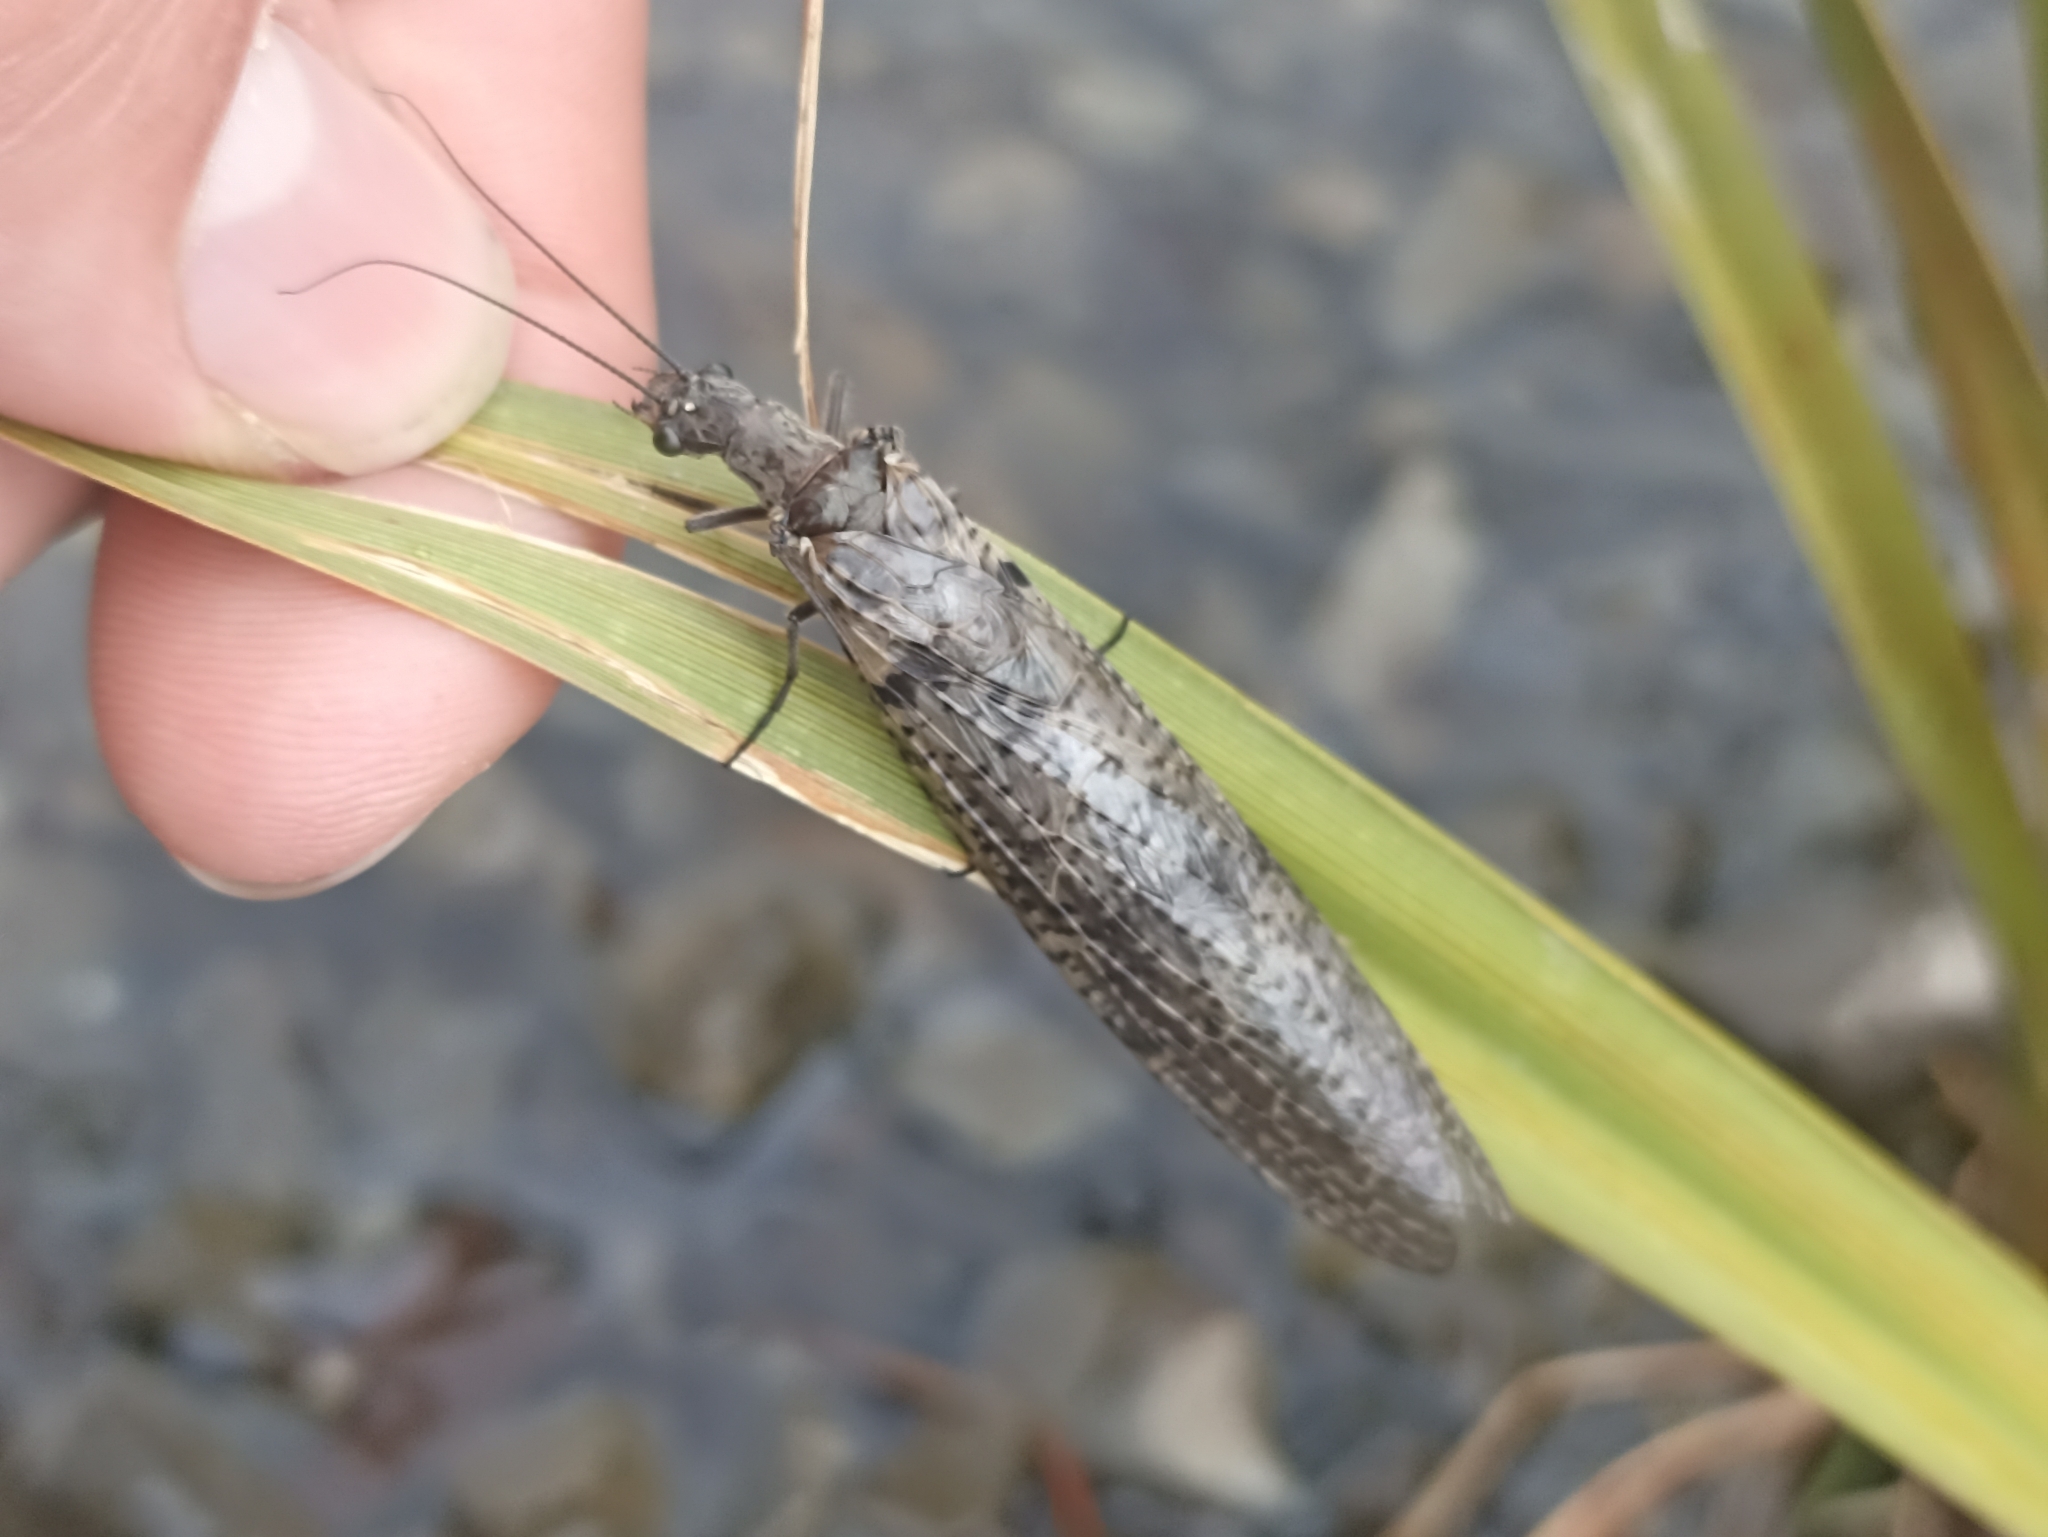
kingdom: Animalia
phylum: Arthropoda
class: Insecta
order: Megaloptera
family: Corydalidae
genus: Archichauliodes
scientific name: Archichauliodes diversus
